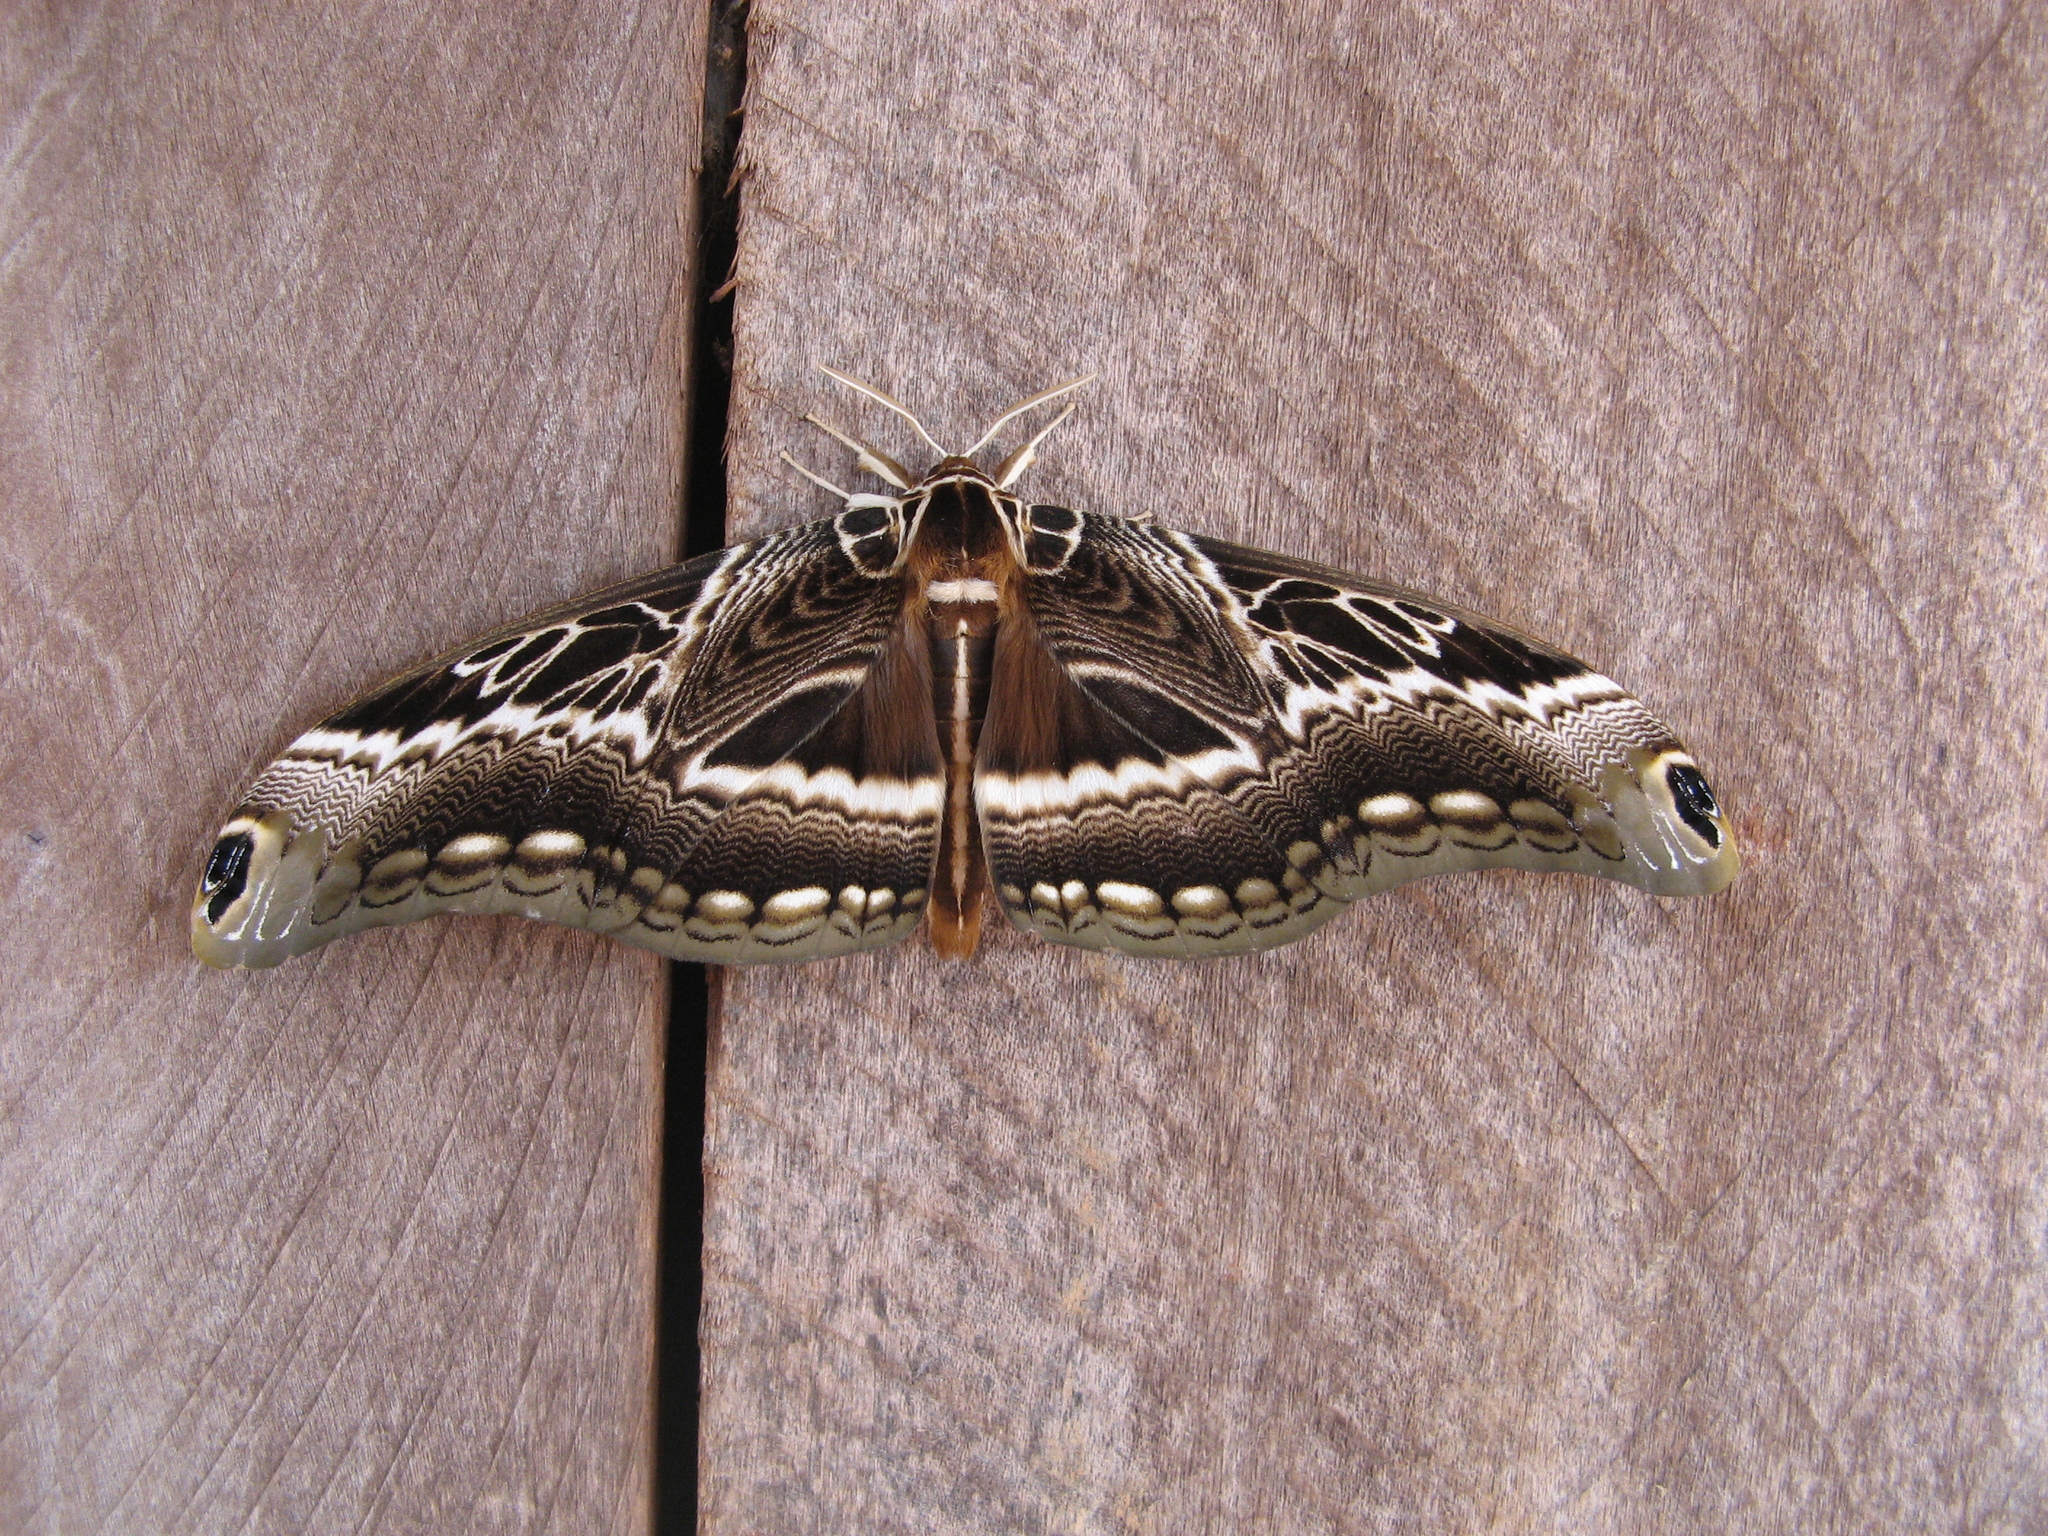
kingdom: Animalia
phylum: Arthropoda
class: Insecta
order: Lepidoptera
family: Brahmaeidae
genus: Dactyloceras
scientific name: Dactyloceras lucina
